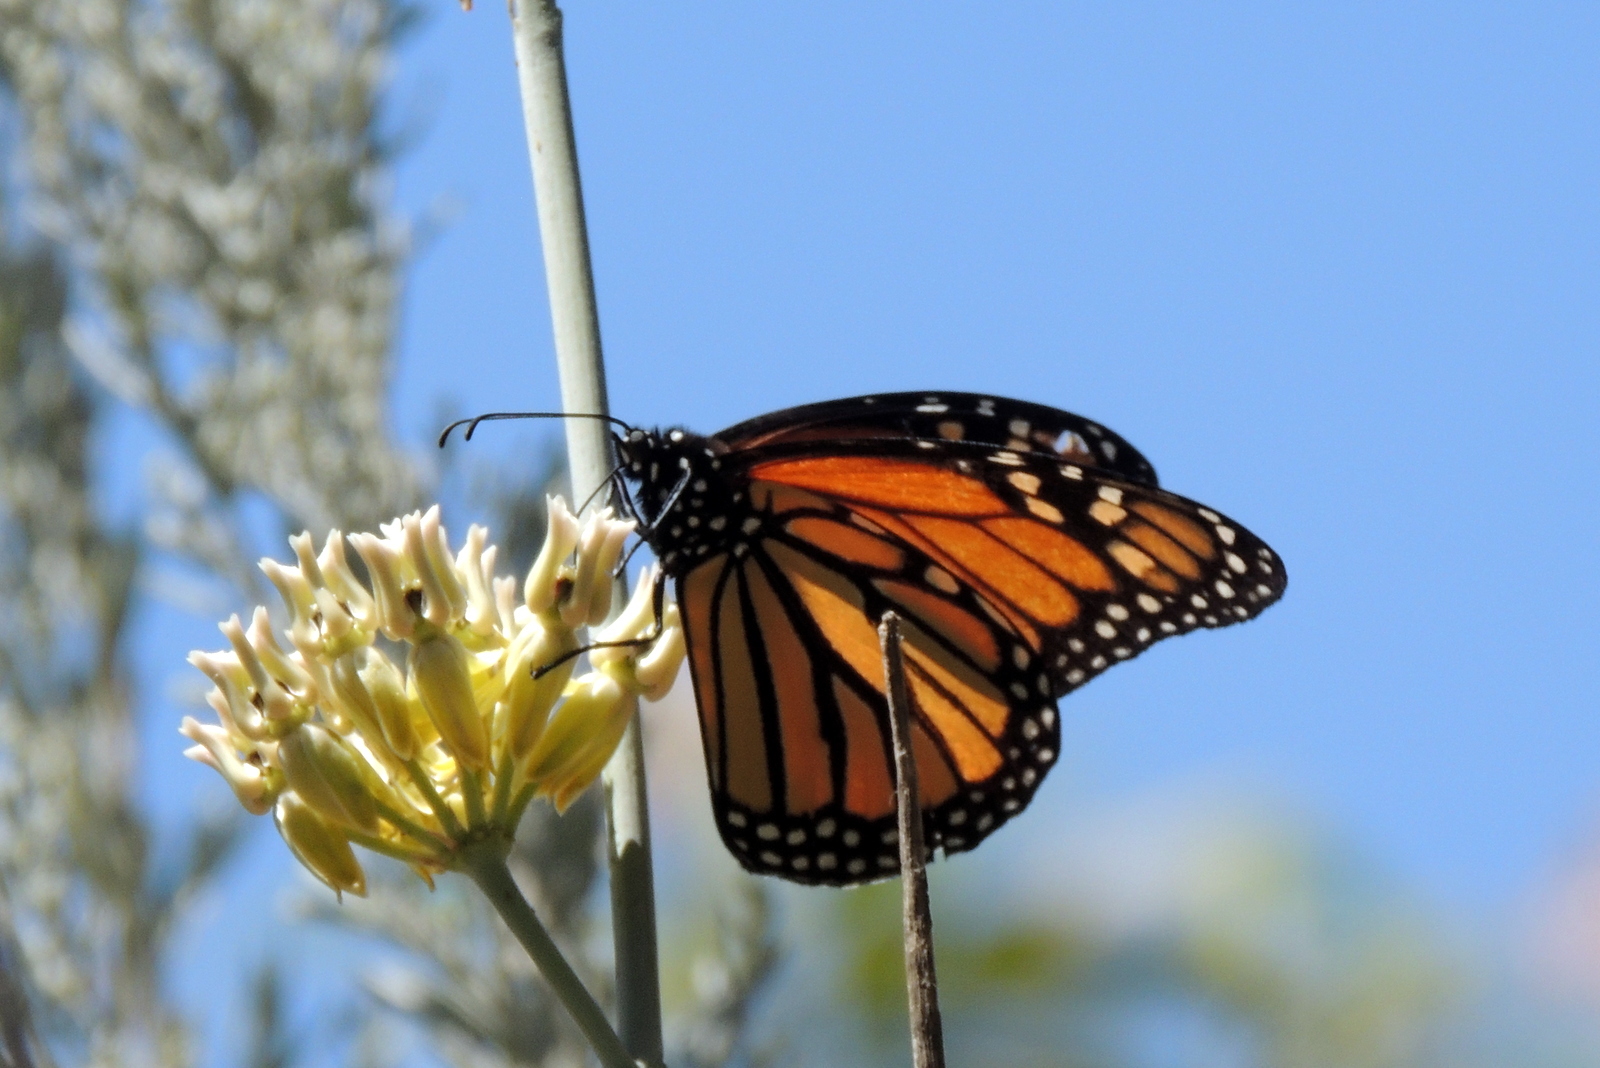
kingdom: Animalia
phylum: Arthropoda
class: Insecta
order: Lepidoptera
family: Nymphalidae
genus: Danaus
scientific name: Danaus plexippus
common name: Monarch
